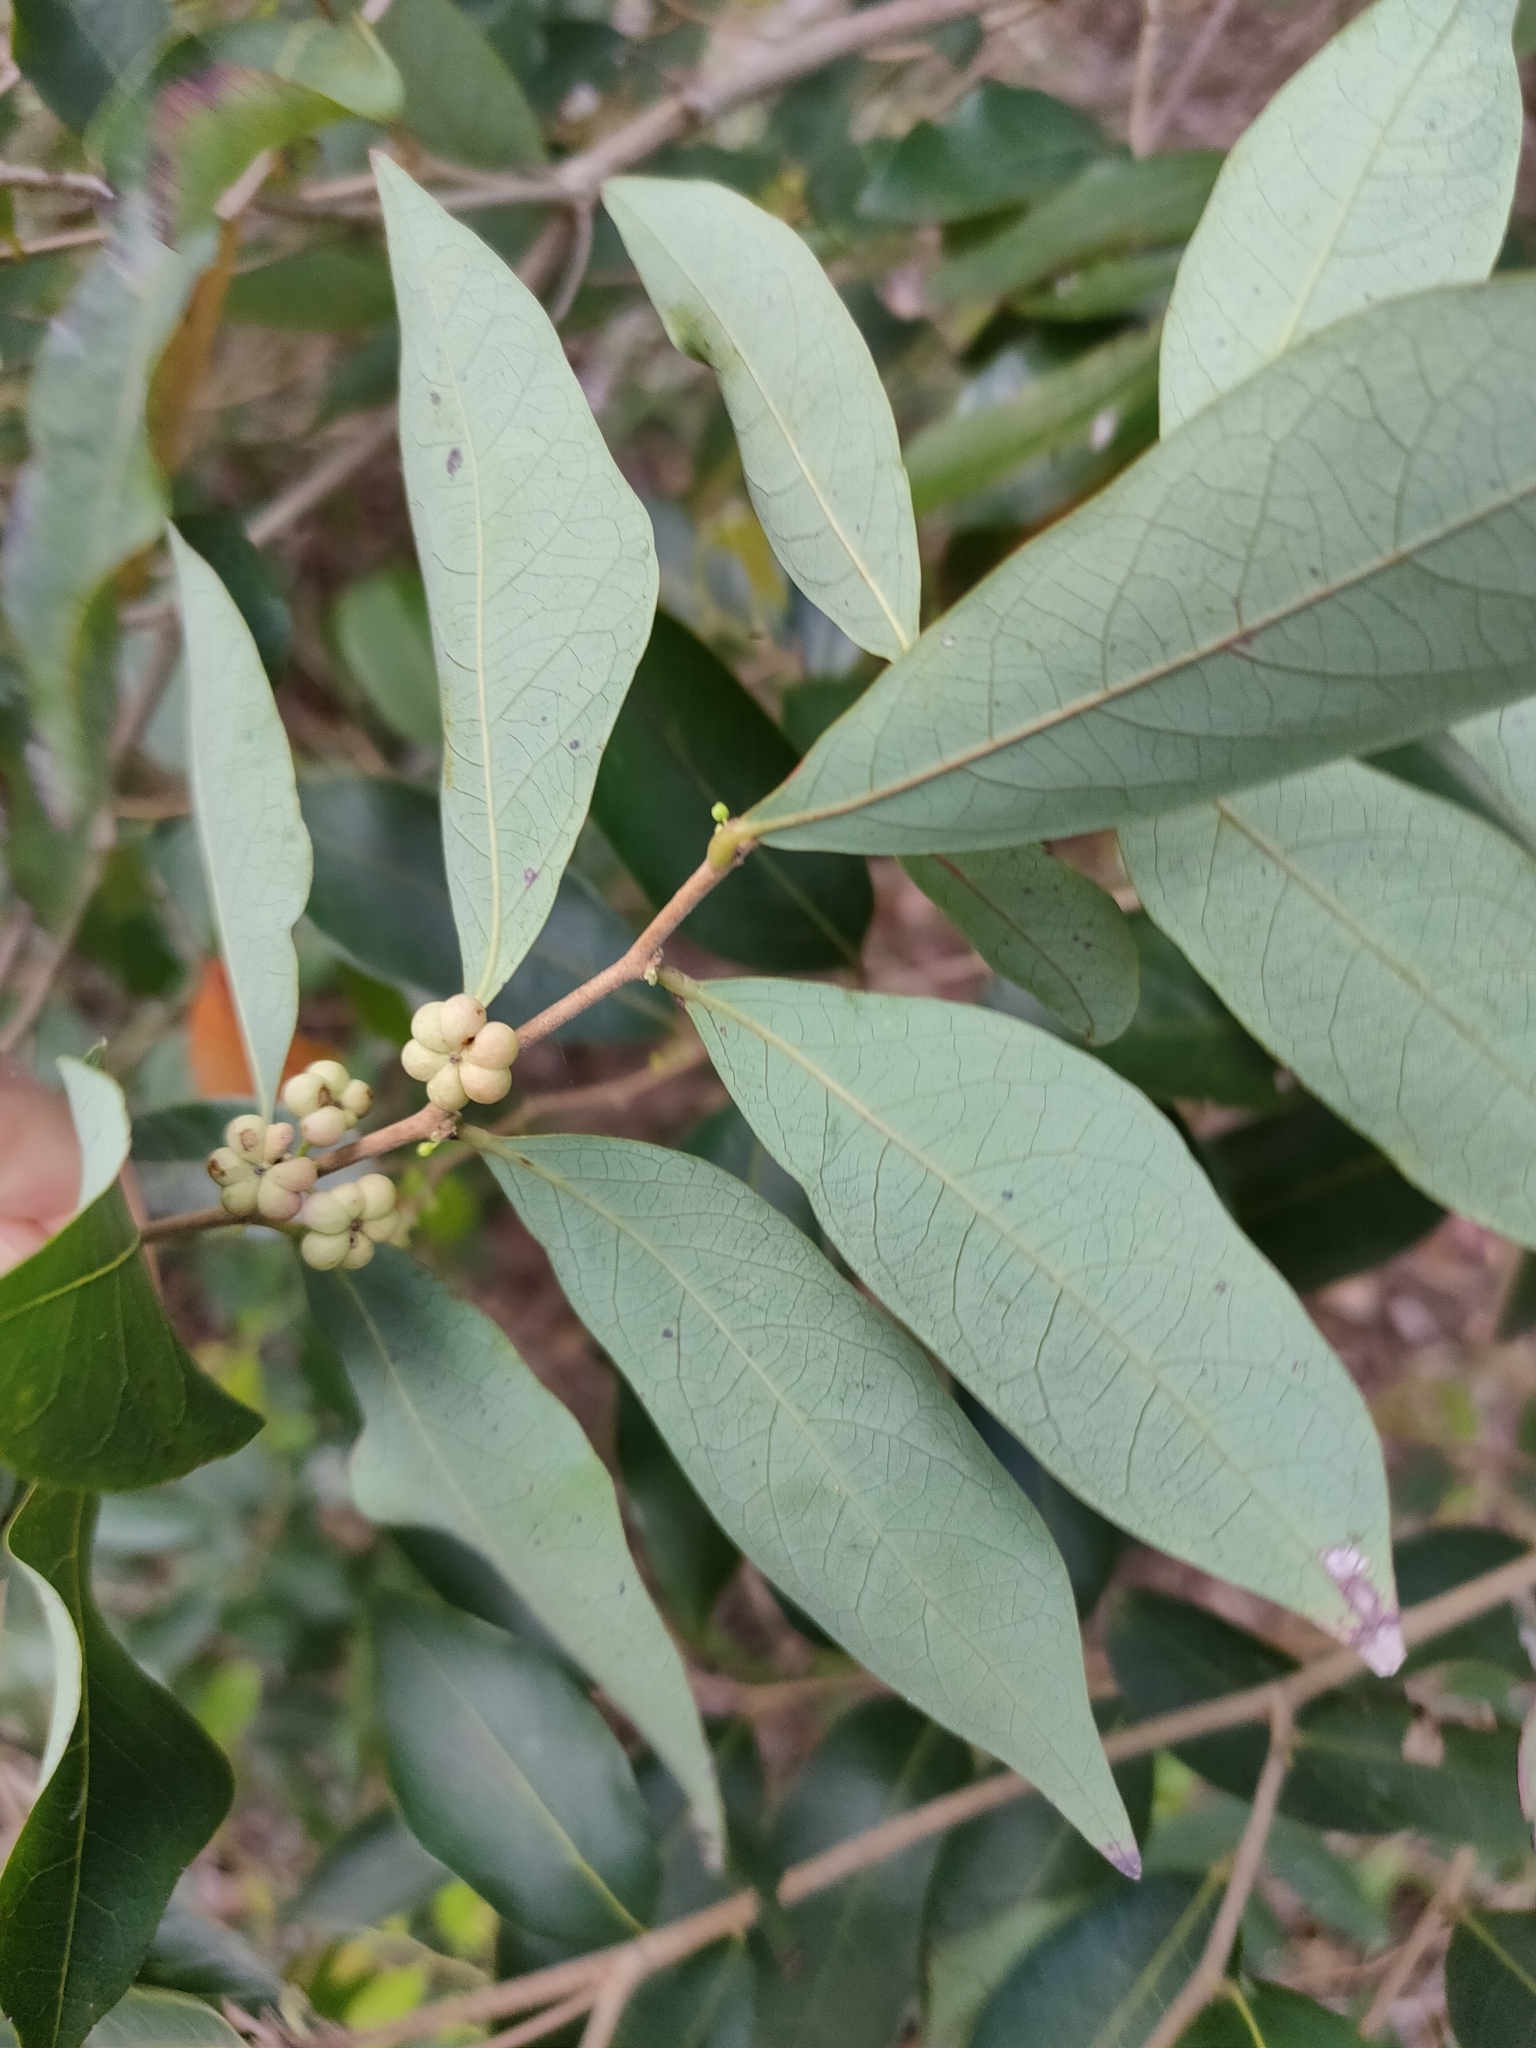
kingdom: Plantae
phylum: Tracheophyta
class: Magnoliopsida
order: Malpighiales
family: Phyllanthaceae
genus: Glochidion
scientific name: Glochidion lobocarpum
